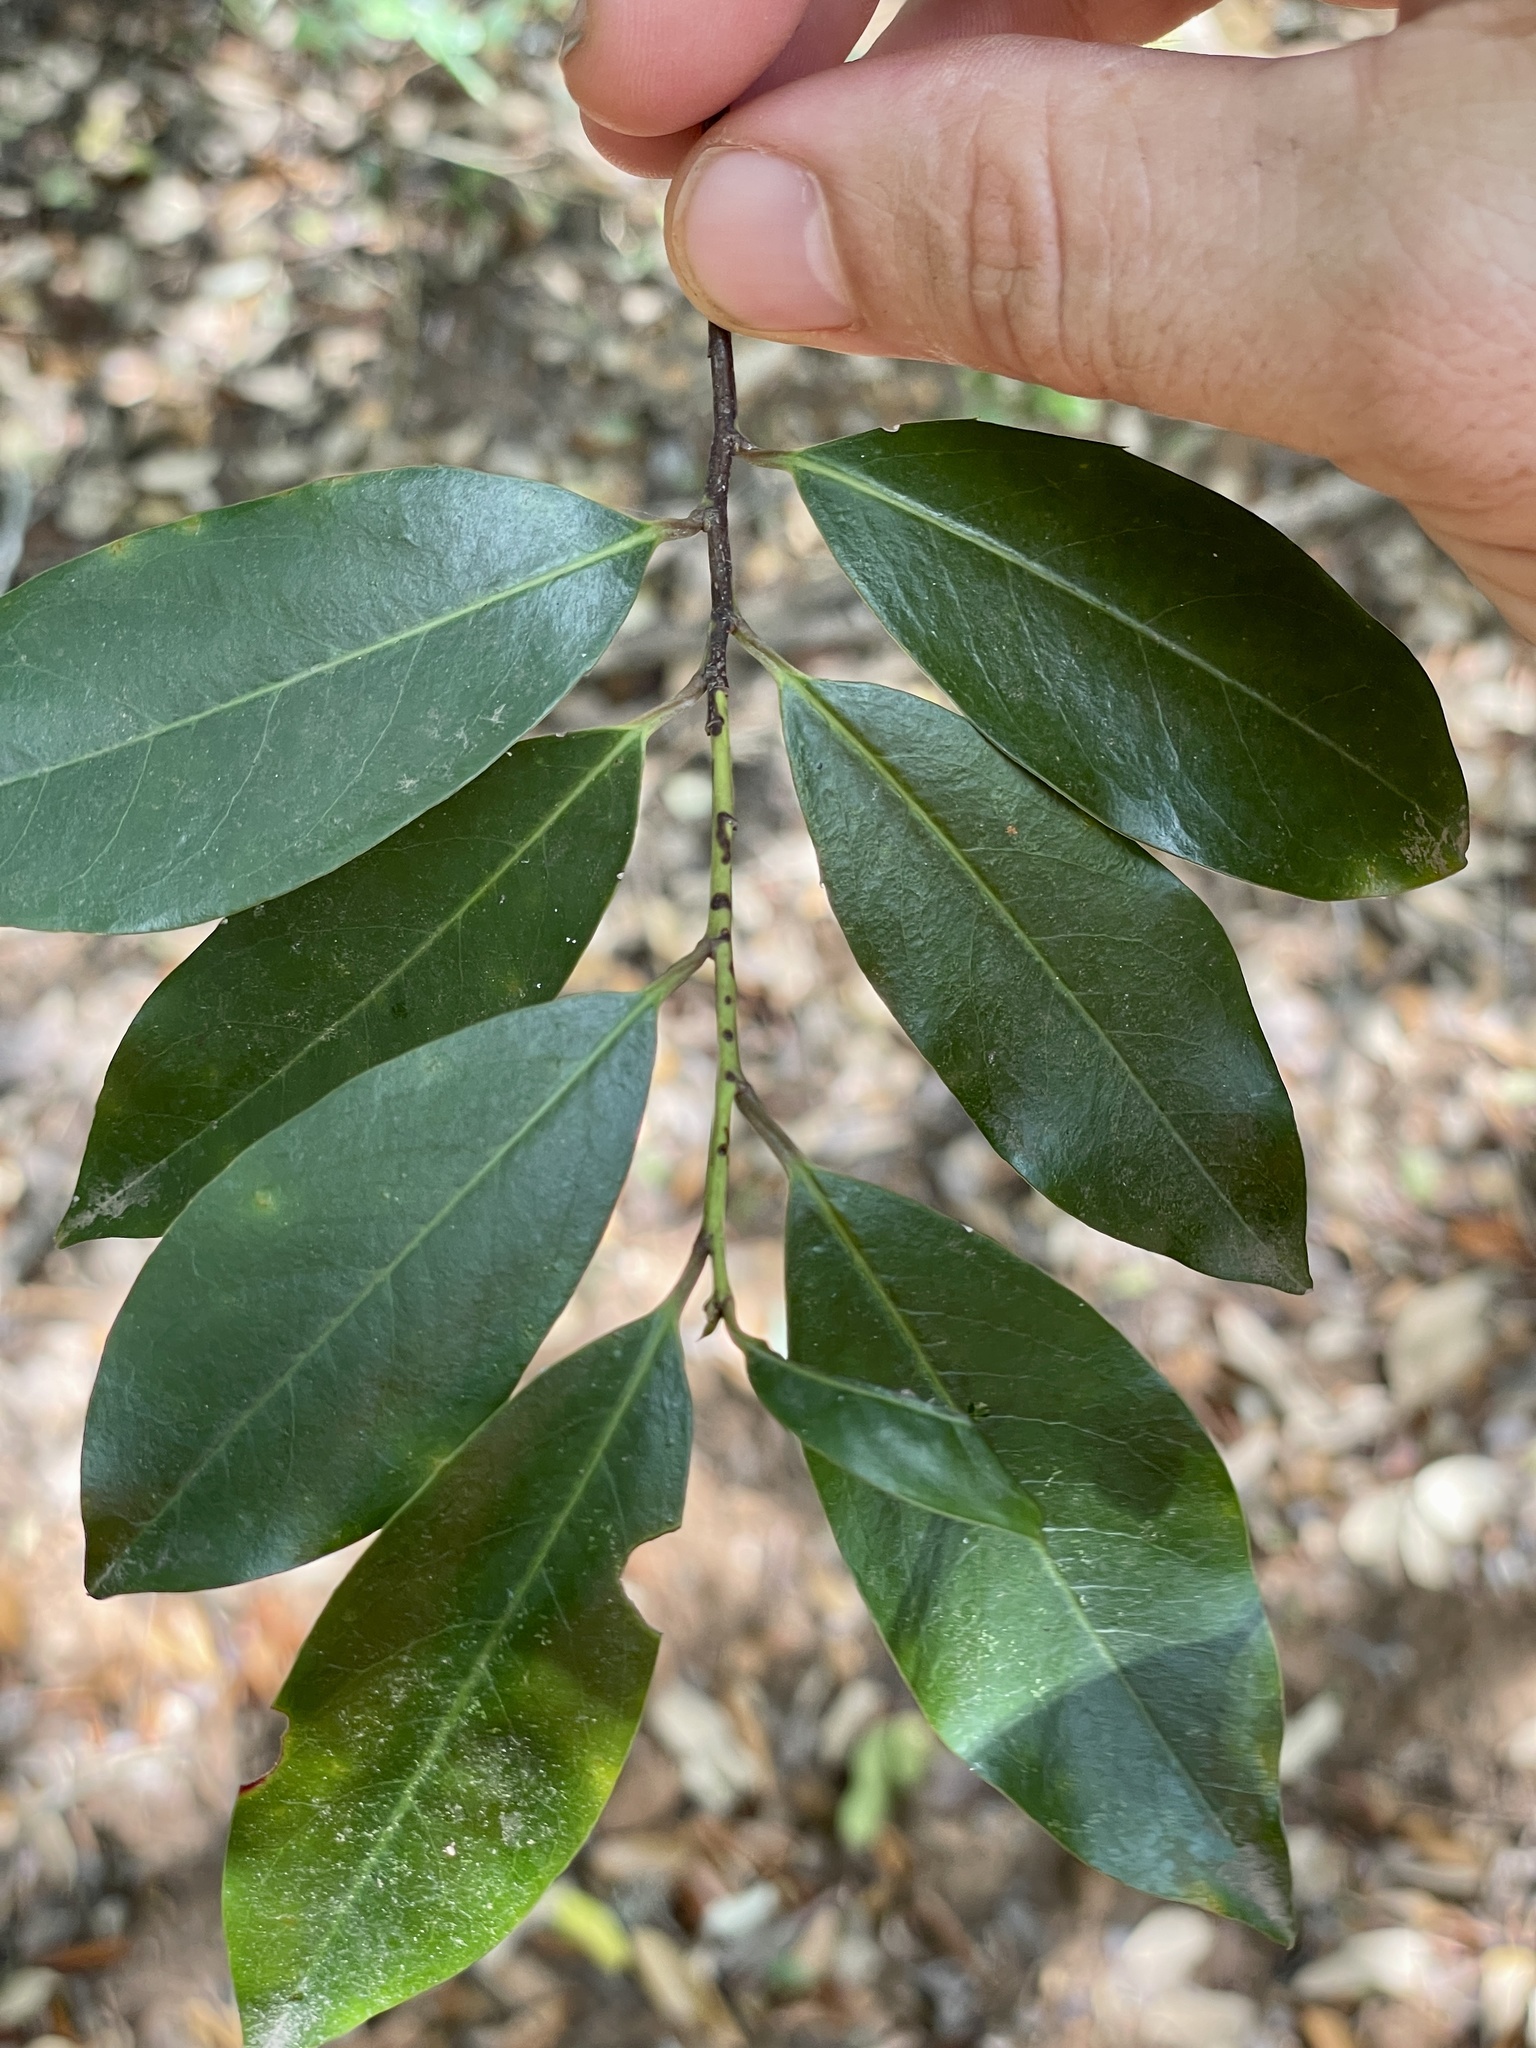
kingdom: Plantae
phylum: Tracheophyta
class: Magnoliopsida
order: Rosales
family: Rosaceae
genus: Prunus
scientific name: Prunus caroliniana
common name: Carolina laurel cherry
